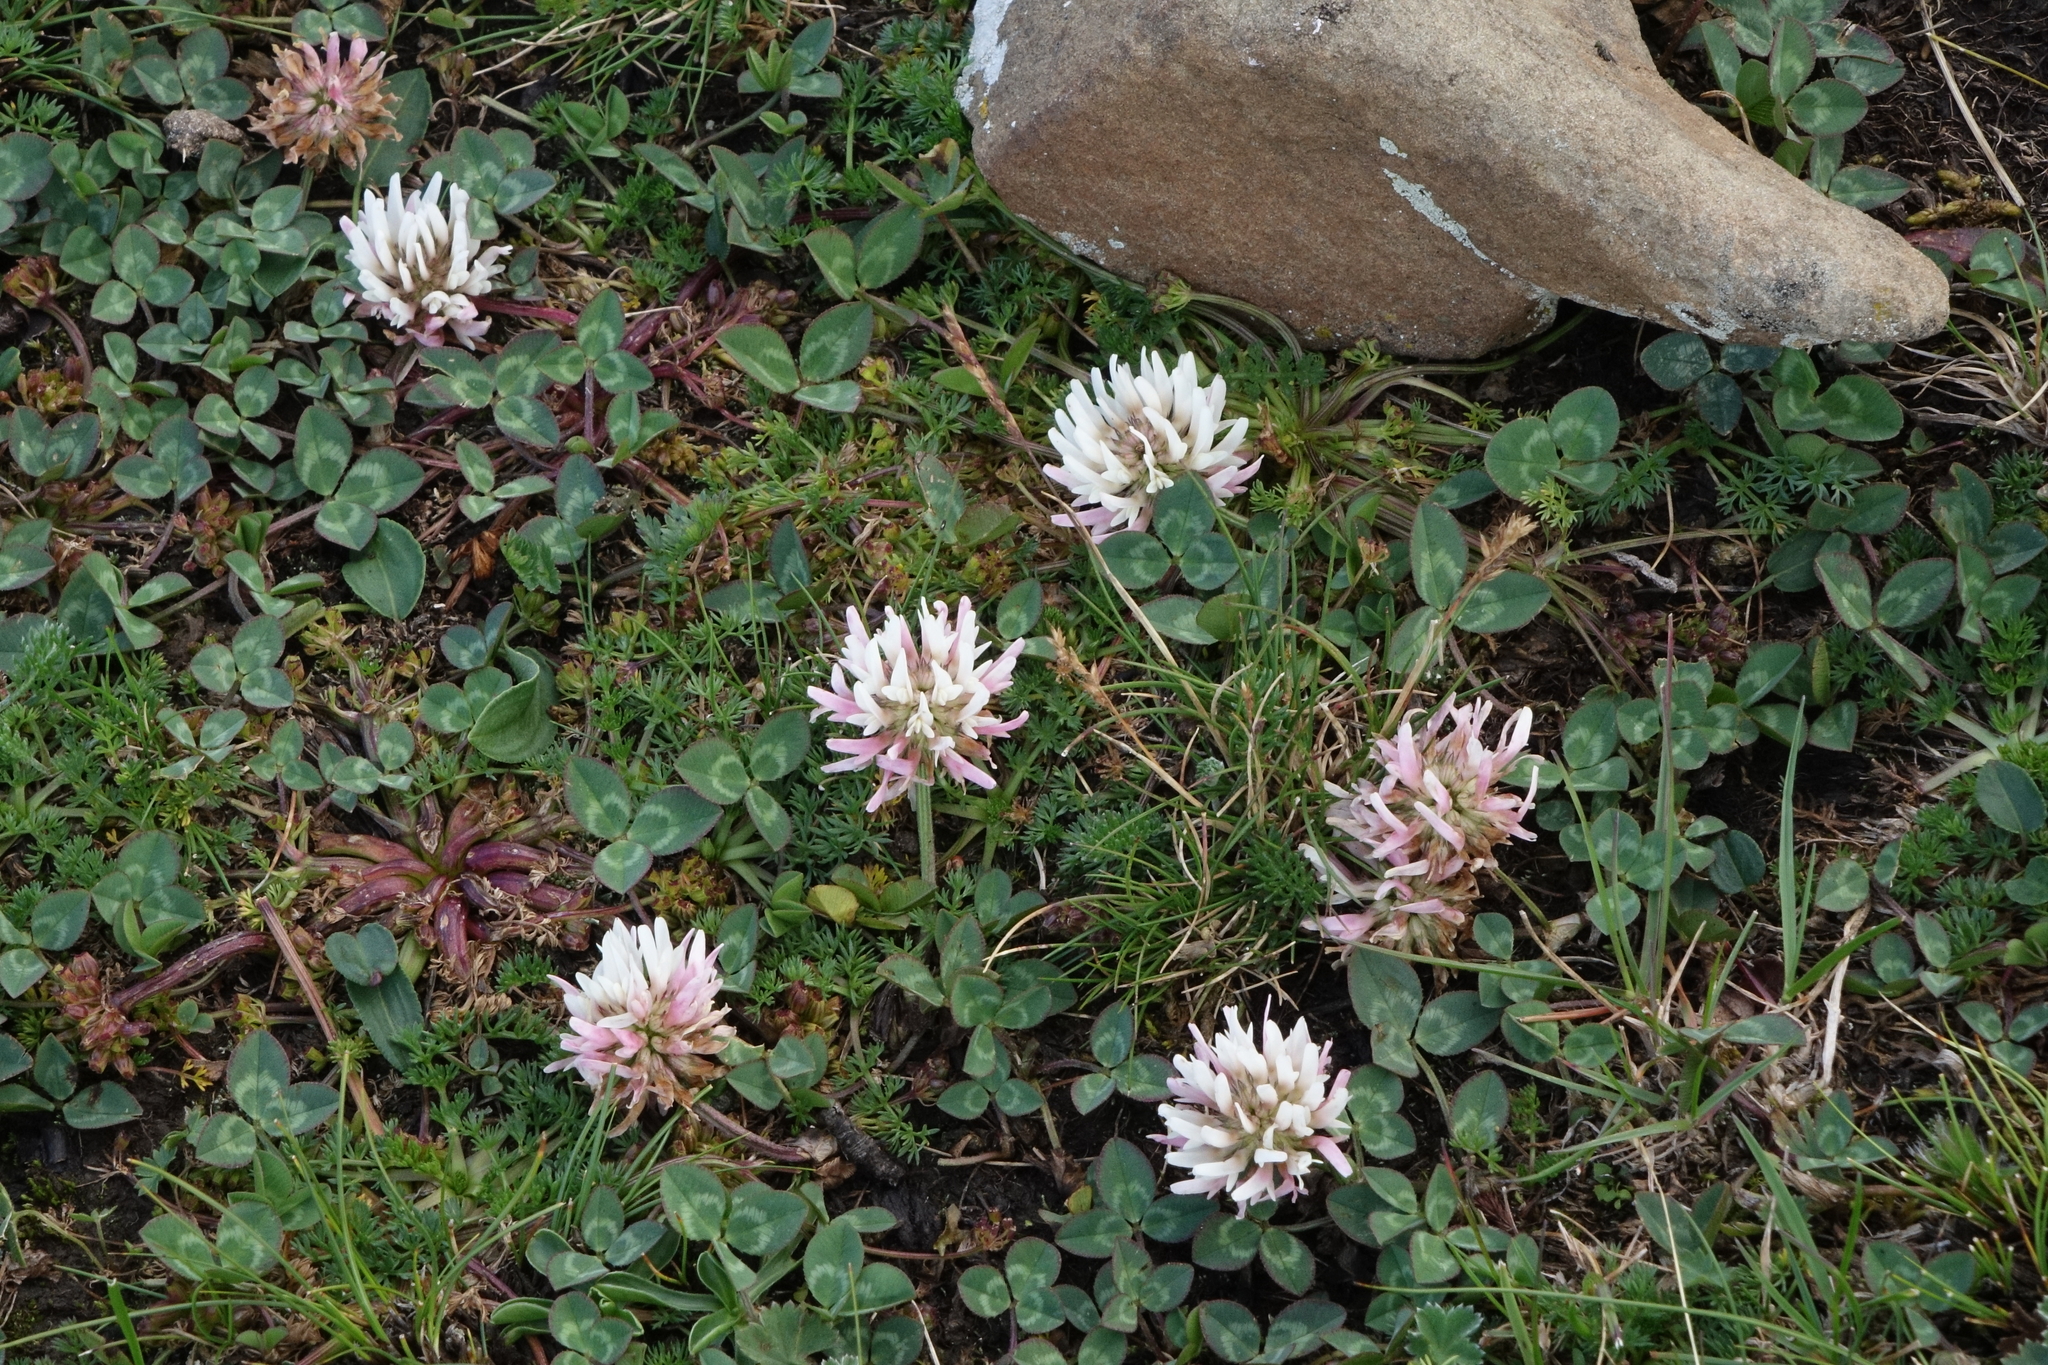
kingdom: Plantae
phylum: Tracheophyta
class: Magnoliopsida
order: Fabales
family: Fabaceae
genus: Trifolium
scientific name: Trifolium ambiguum
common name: Kura clover
